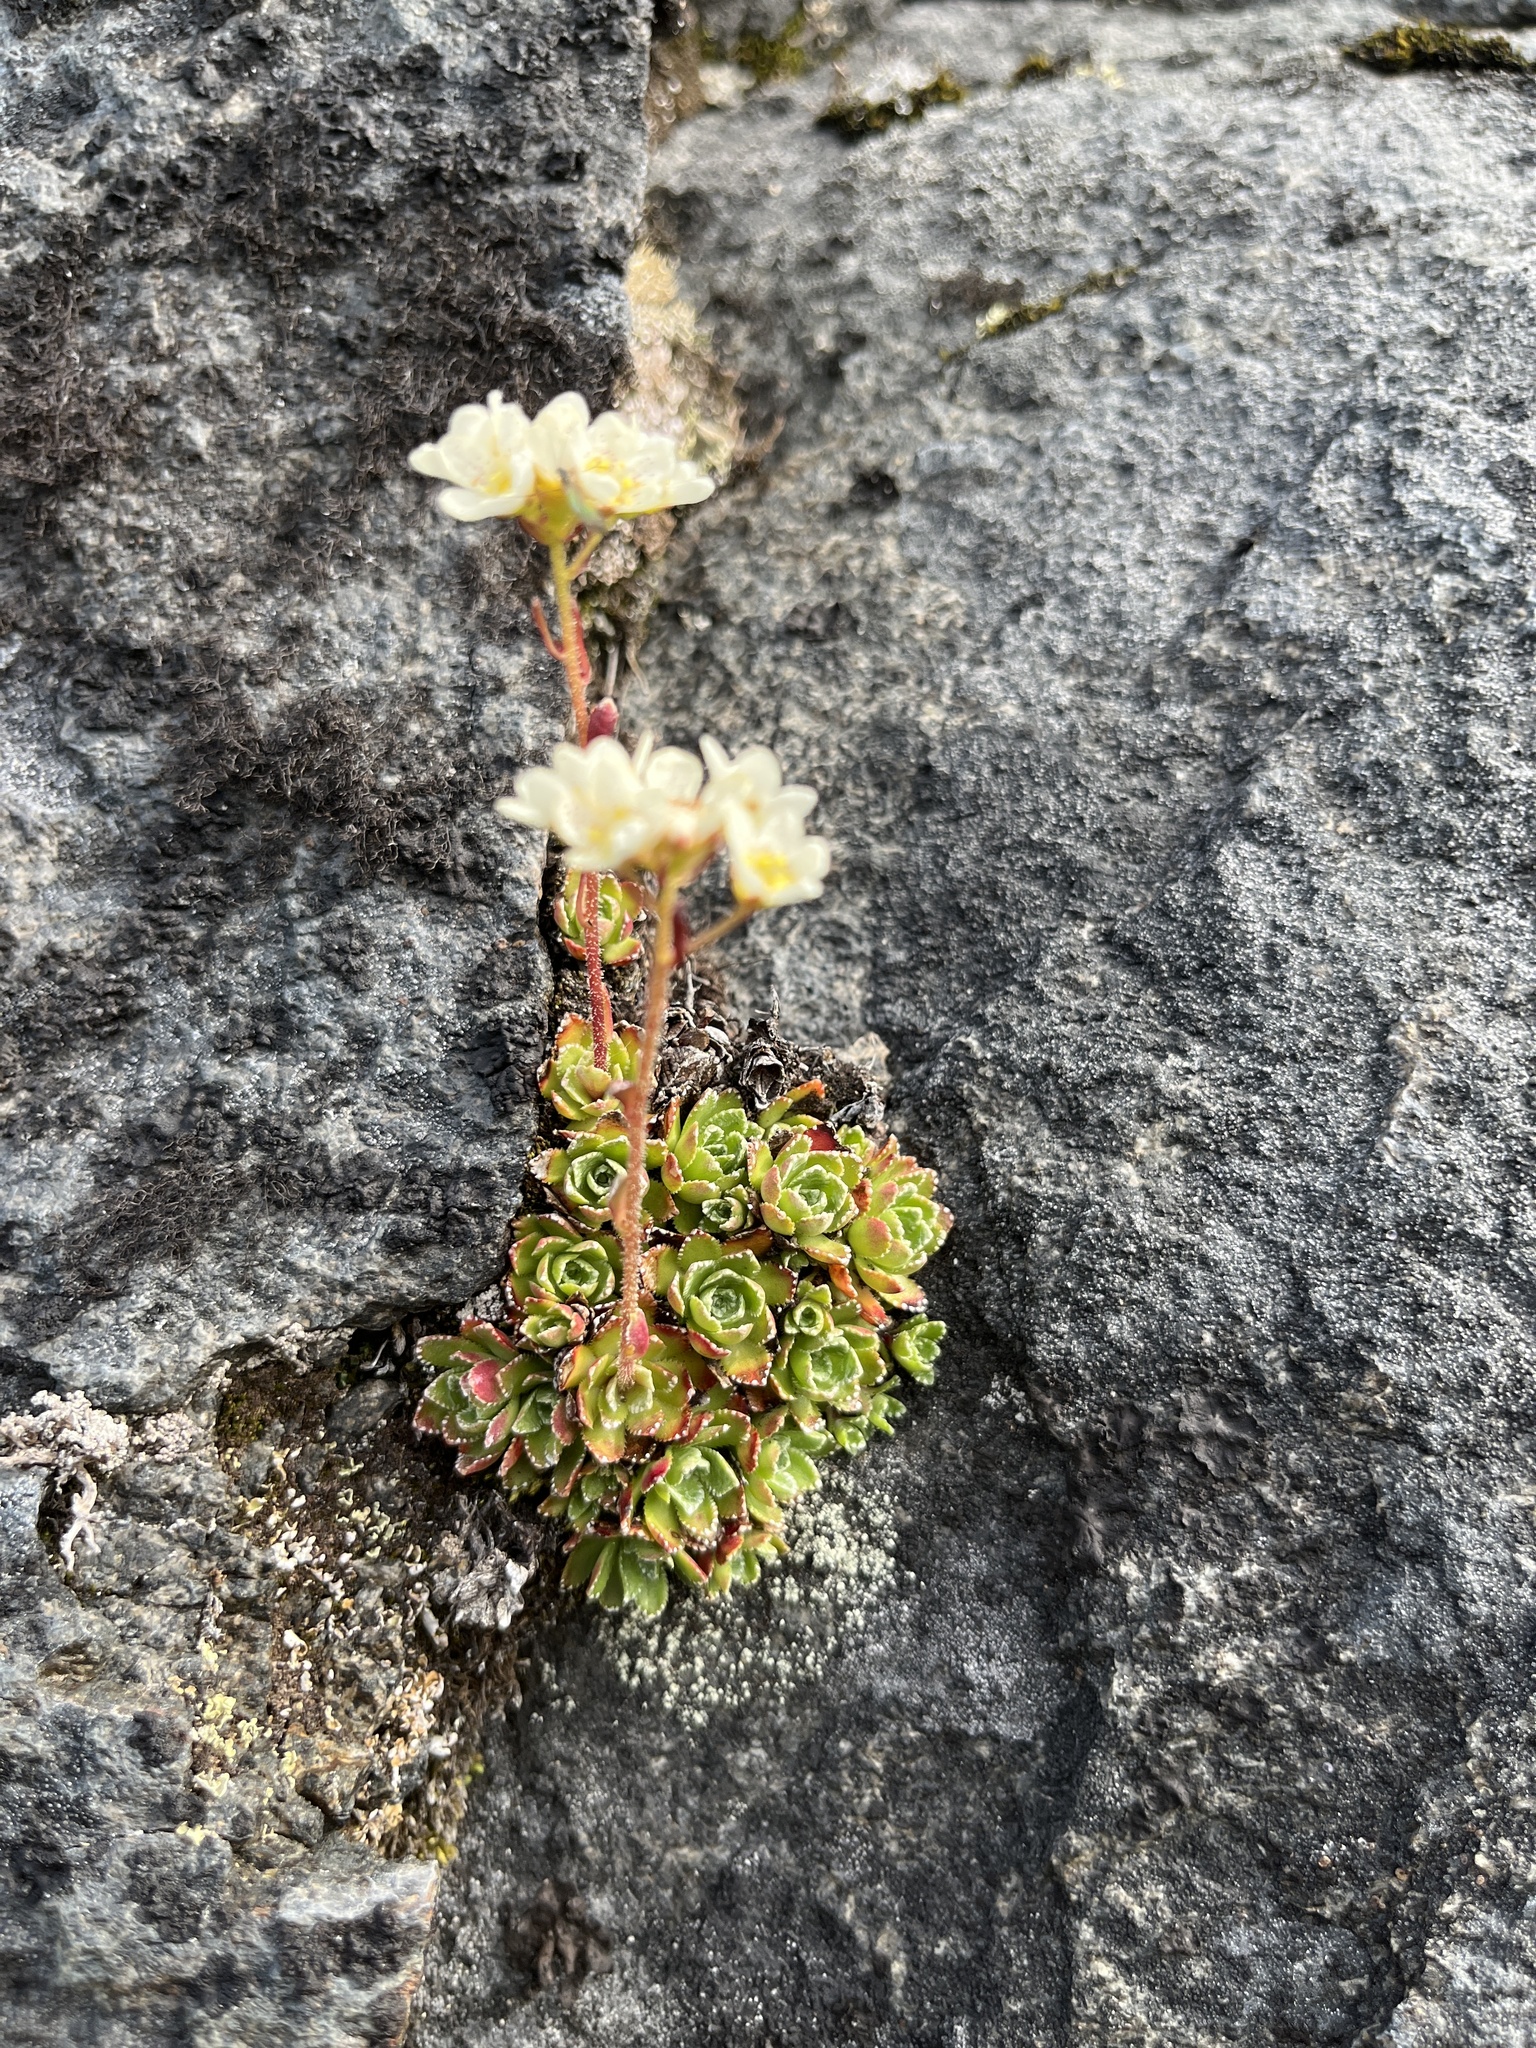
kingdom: Plantae
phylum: Tracheophyta
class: Magnoliopsida
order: Saxifragales
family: Saxifragaceae
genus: Saxifraga
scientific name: Saxifraga paniculata
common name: Livelong saxifrage
